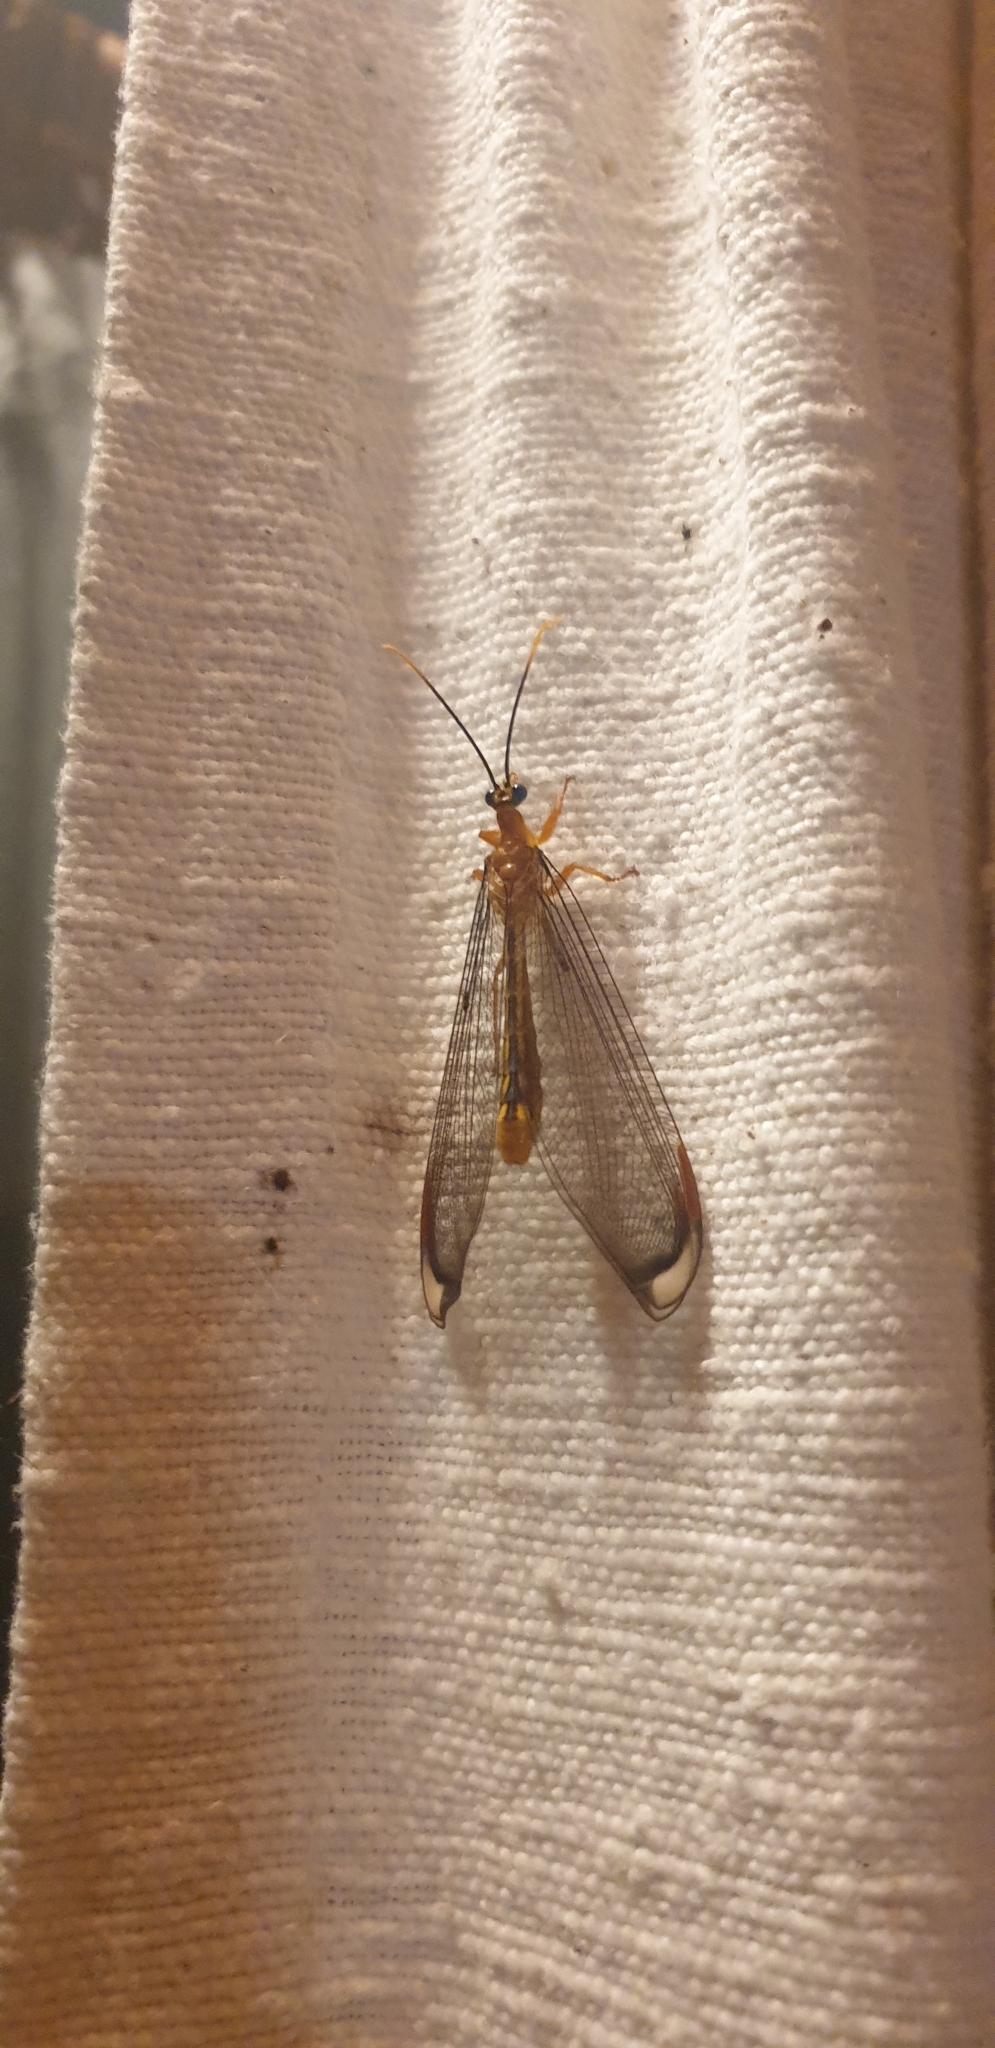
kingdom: Animalia
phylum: Arthropoda
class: Insecta
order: Neuroptera
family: Nymphidae
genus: Nymphes
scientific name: Nymphes myrmeleonoides
